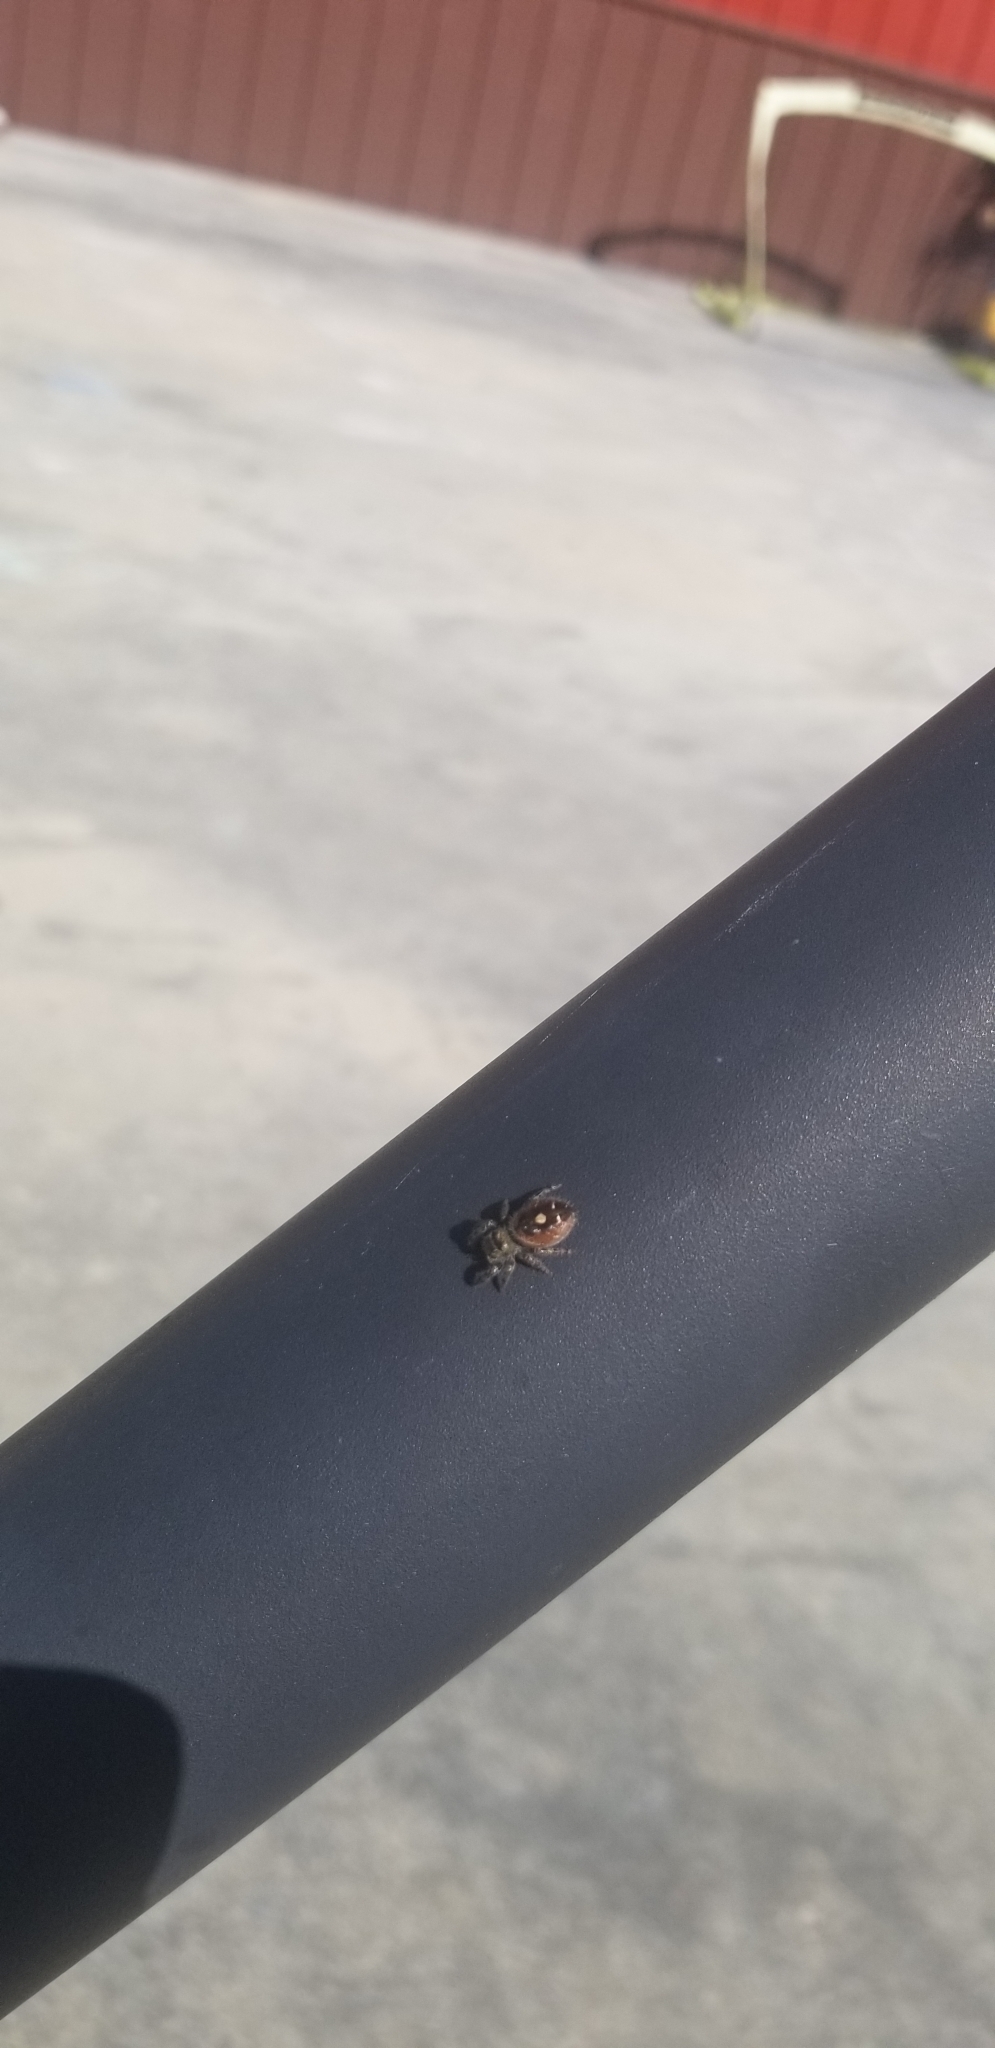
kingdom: Animalia
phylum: Arthropoda
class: Arachnida
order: Araneae
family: Salticidae
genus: Phidippus
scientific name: Phidippus audax
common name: Bold jumper
